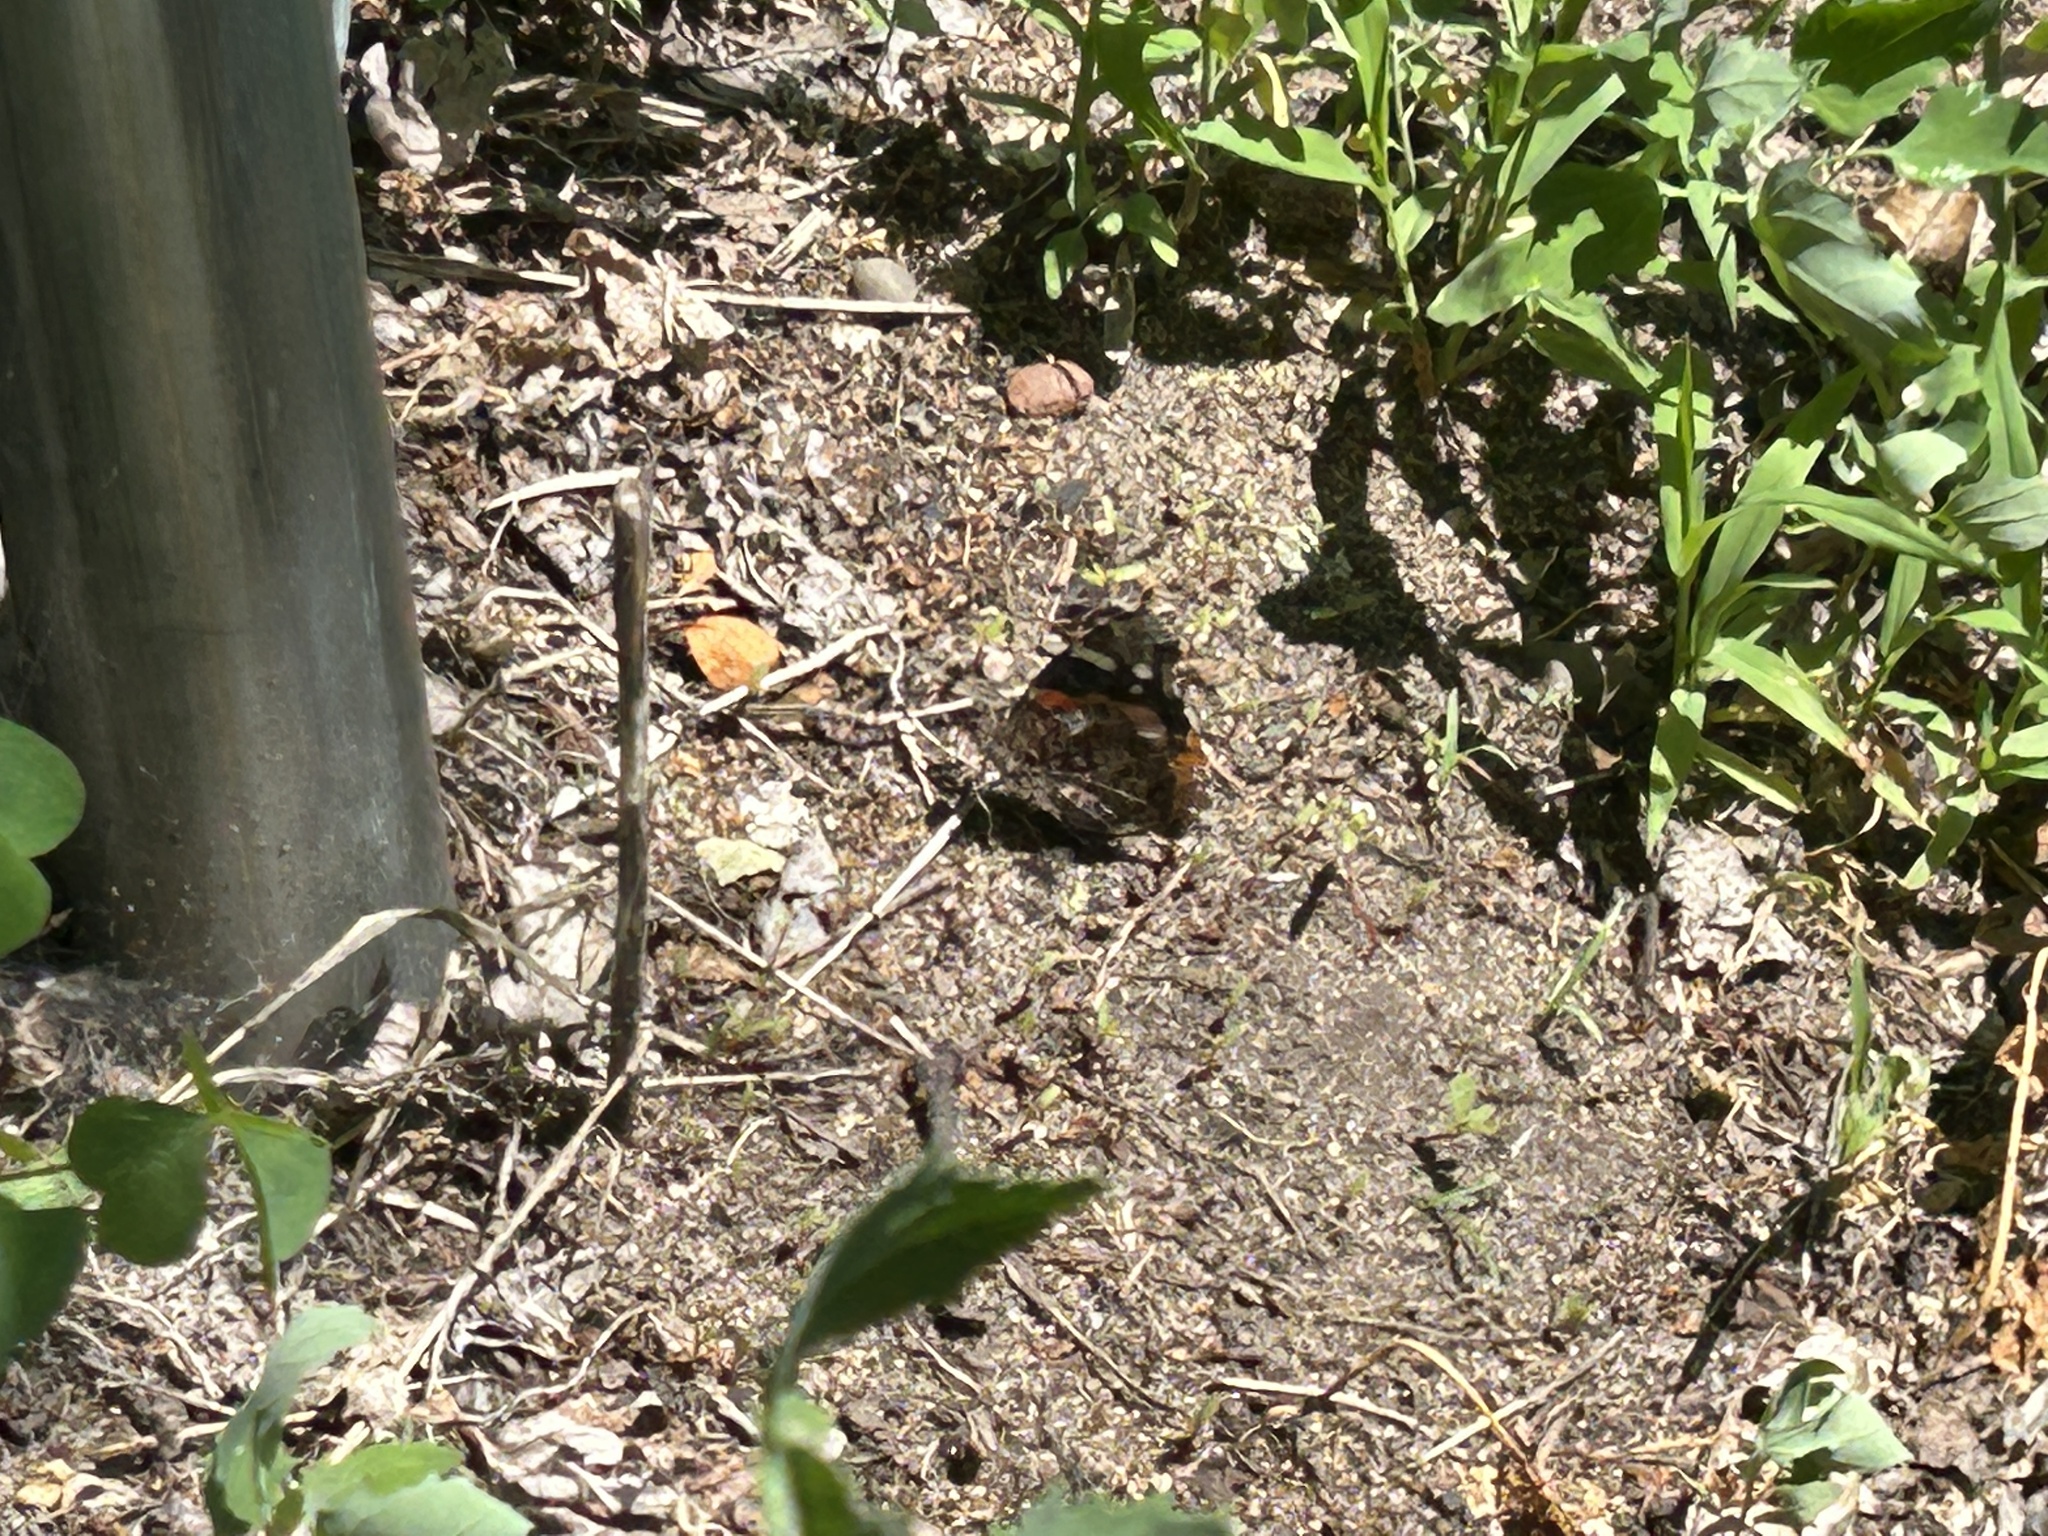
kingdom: Animalia
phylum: Arthropoda
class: Insecta
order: Lepidoptera
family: Nymphalidae
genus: Vanessa
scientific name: Vanessa atalanta
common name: Red admiral
